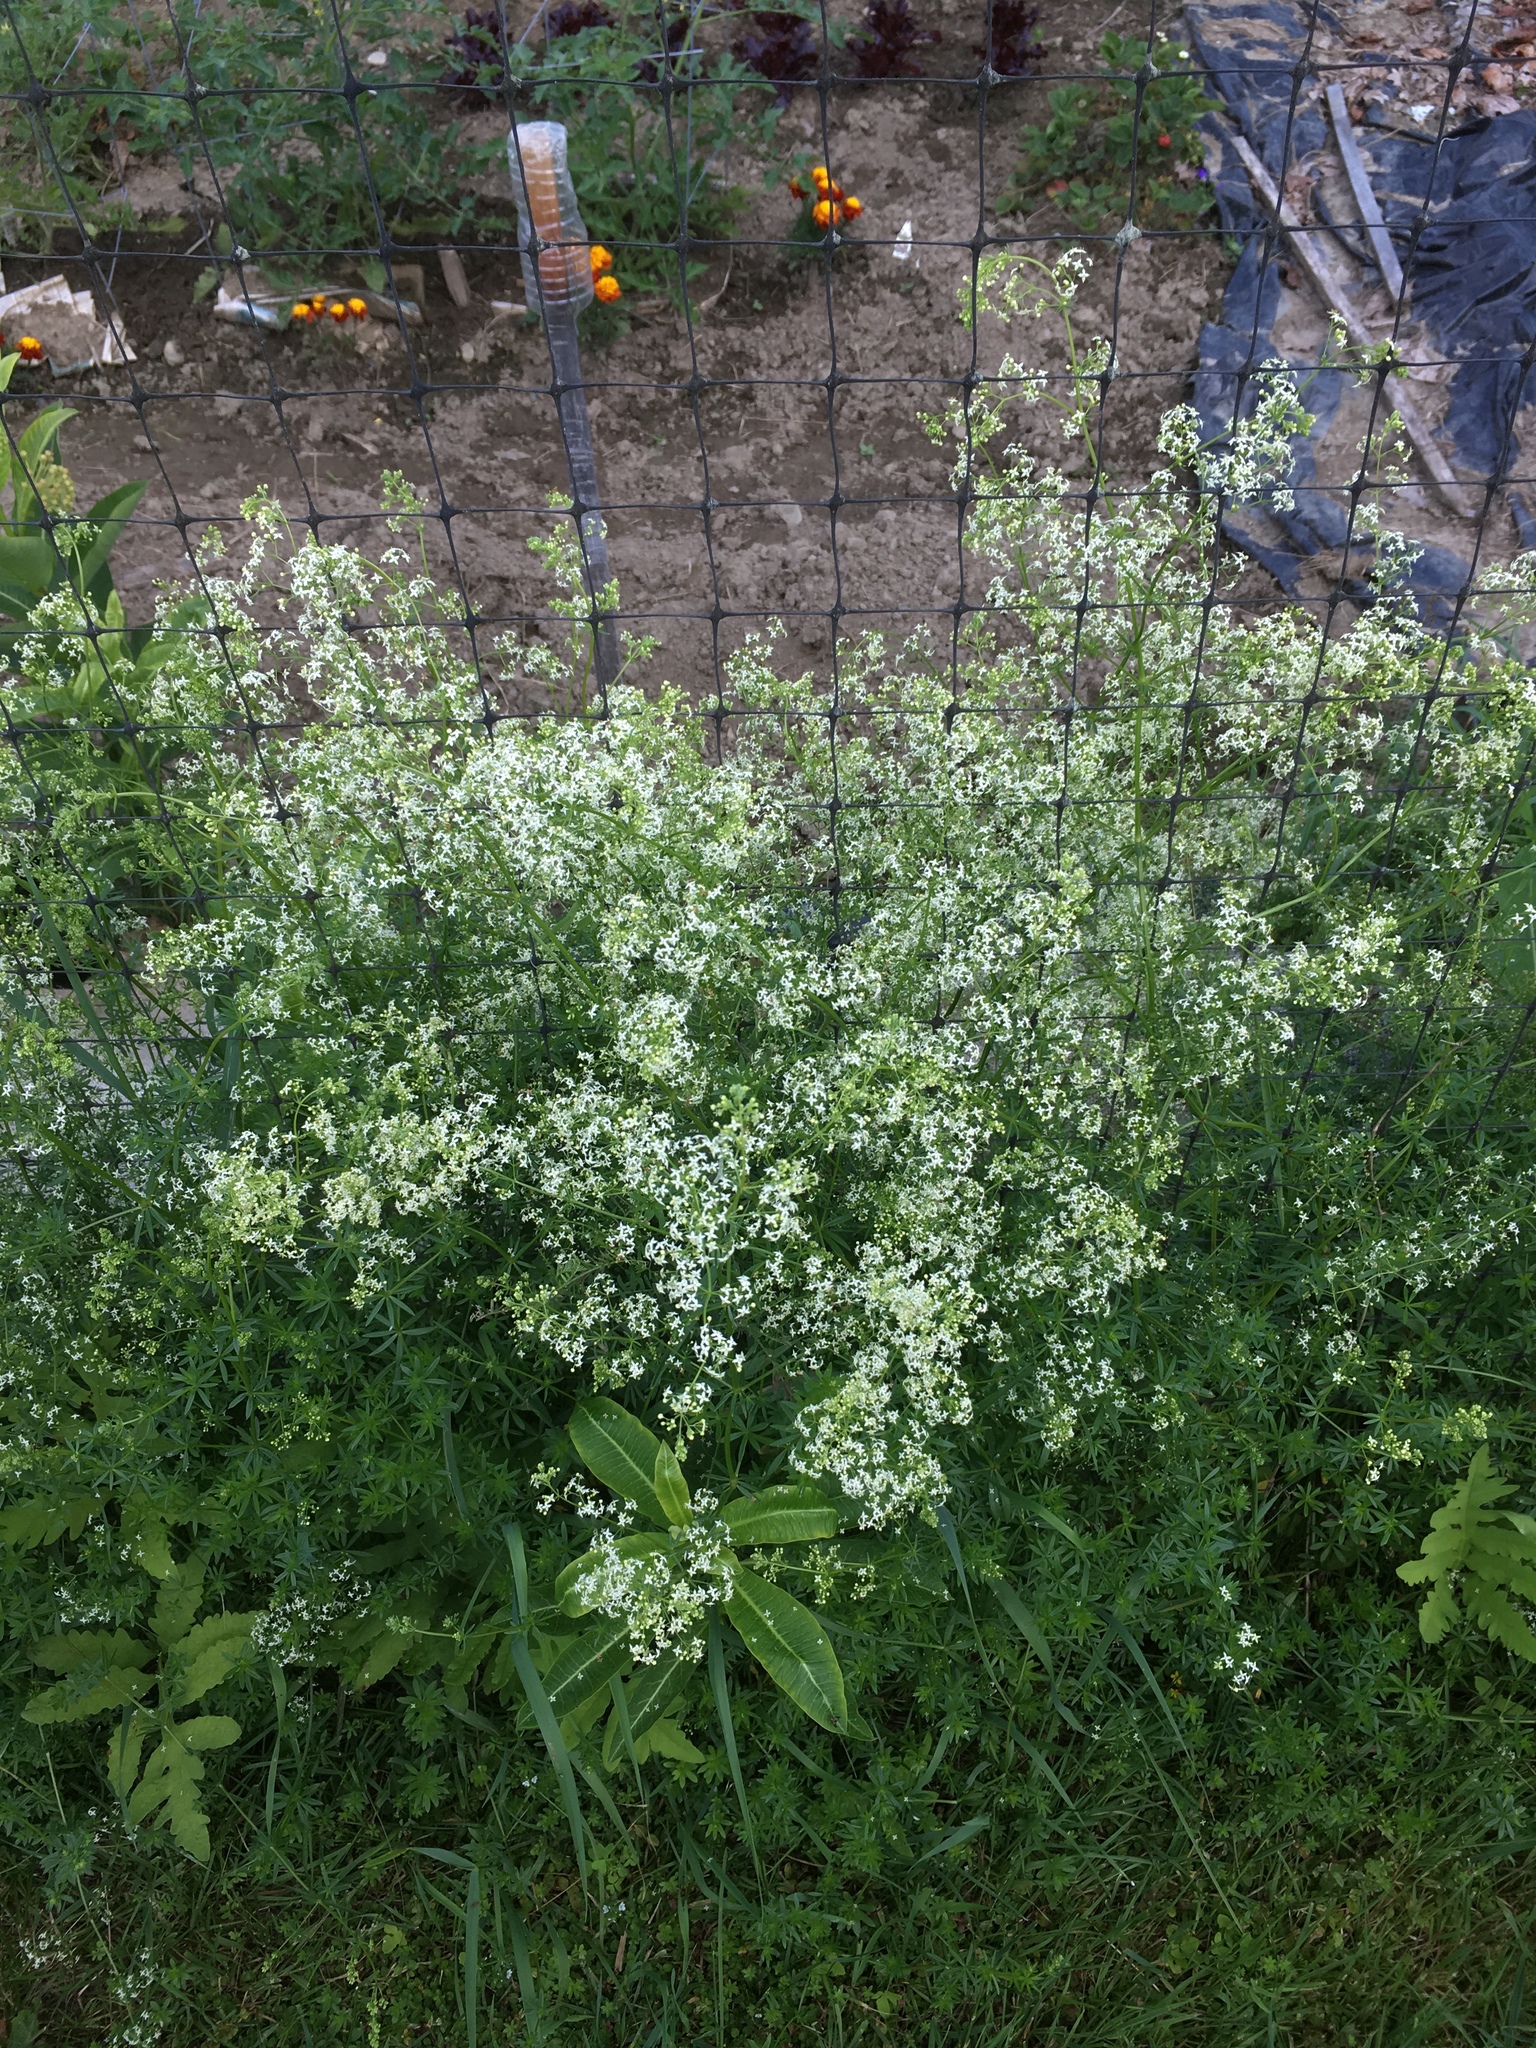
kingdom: Plantae
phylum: Tracheophyta
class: Magnoliopsida
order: Gentianales
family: Rubiaceae
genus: Galium
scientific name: Galium mollugo
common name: Hedge bedstraw
